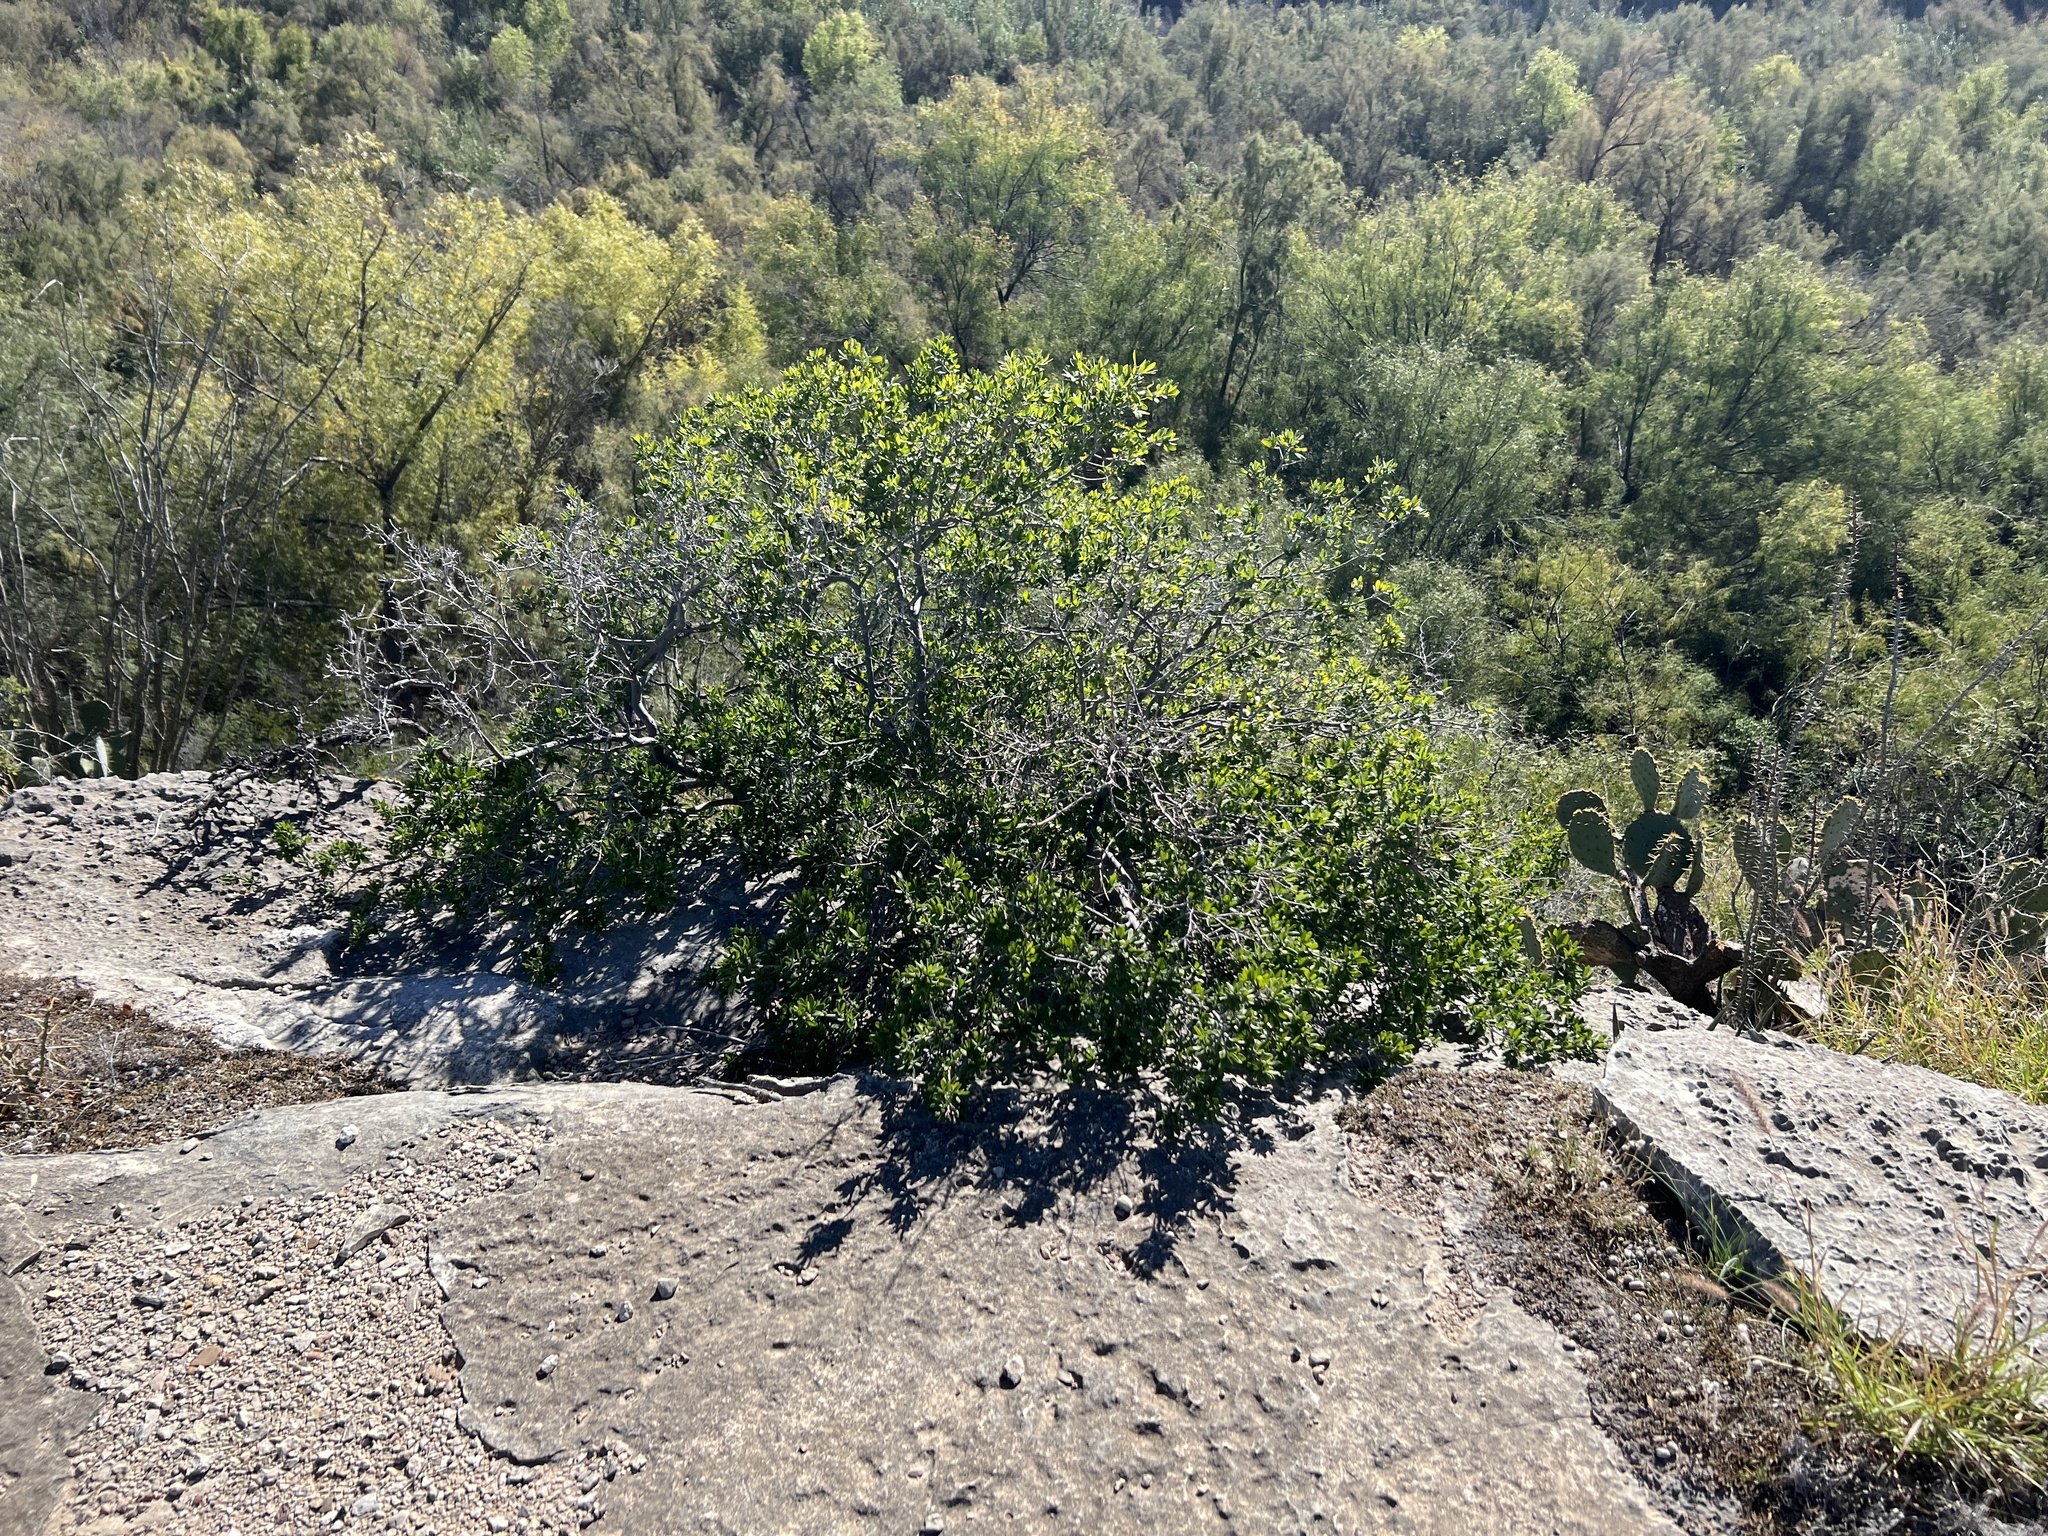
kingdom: Plantae
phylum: Tracheophyta
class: Magnoliopsida
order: Ericales
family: Ebenaceae
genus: Diospyros
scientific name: Diospyros texana
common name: Texas persimmon
